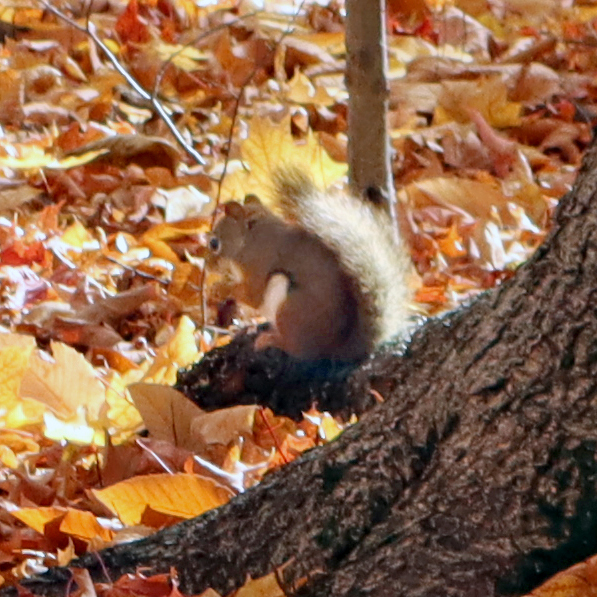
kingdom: Animalia
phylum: Chordata
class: Mammalia
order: Rodentia
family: Sciuridae
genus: Tamiasciurus
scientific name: Tamiasciurus hudsonicus
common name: Red squirrel
